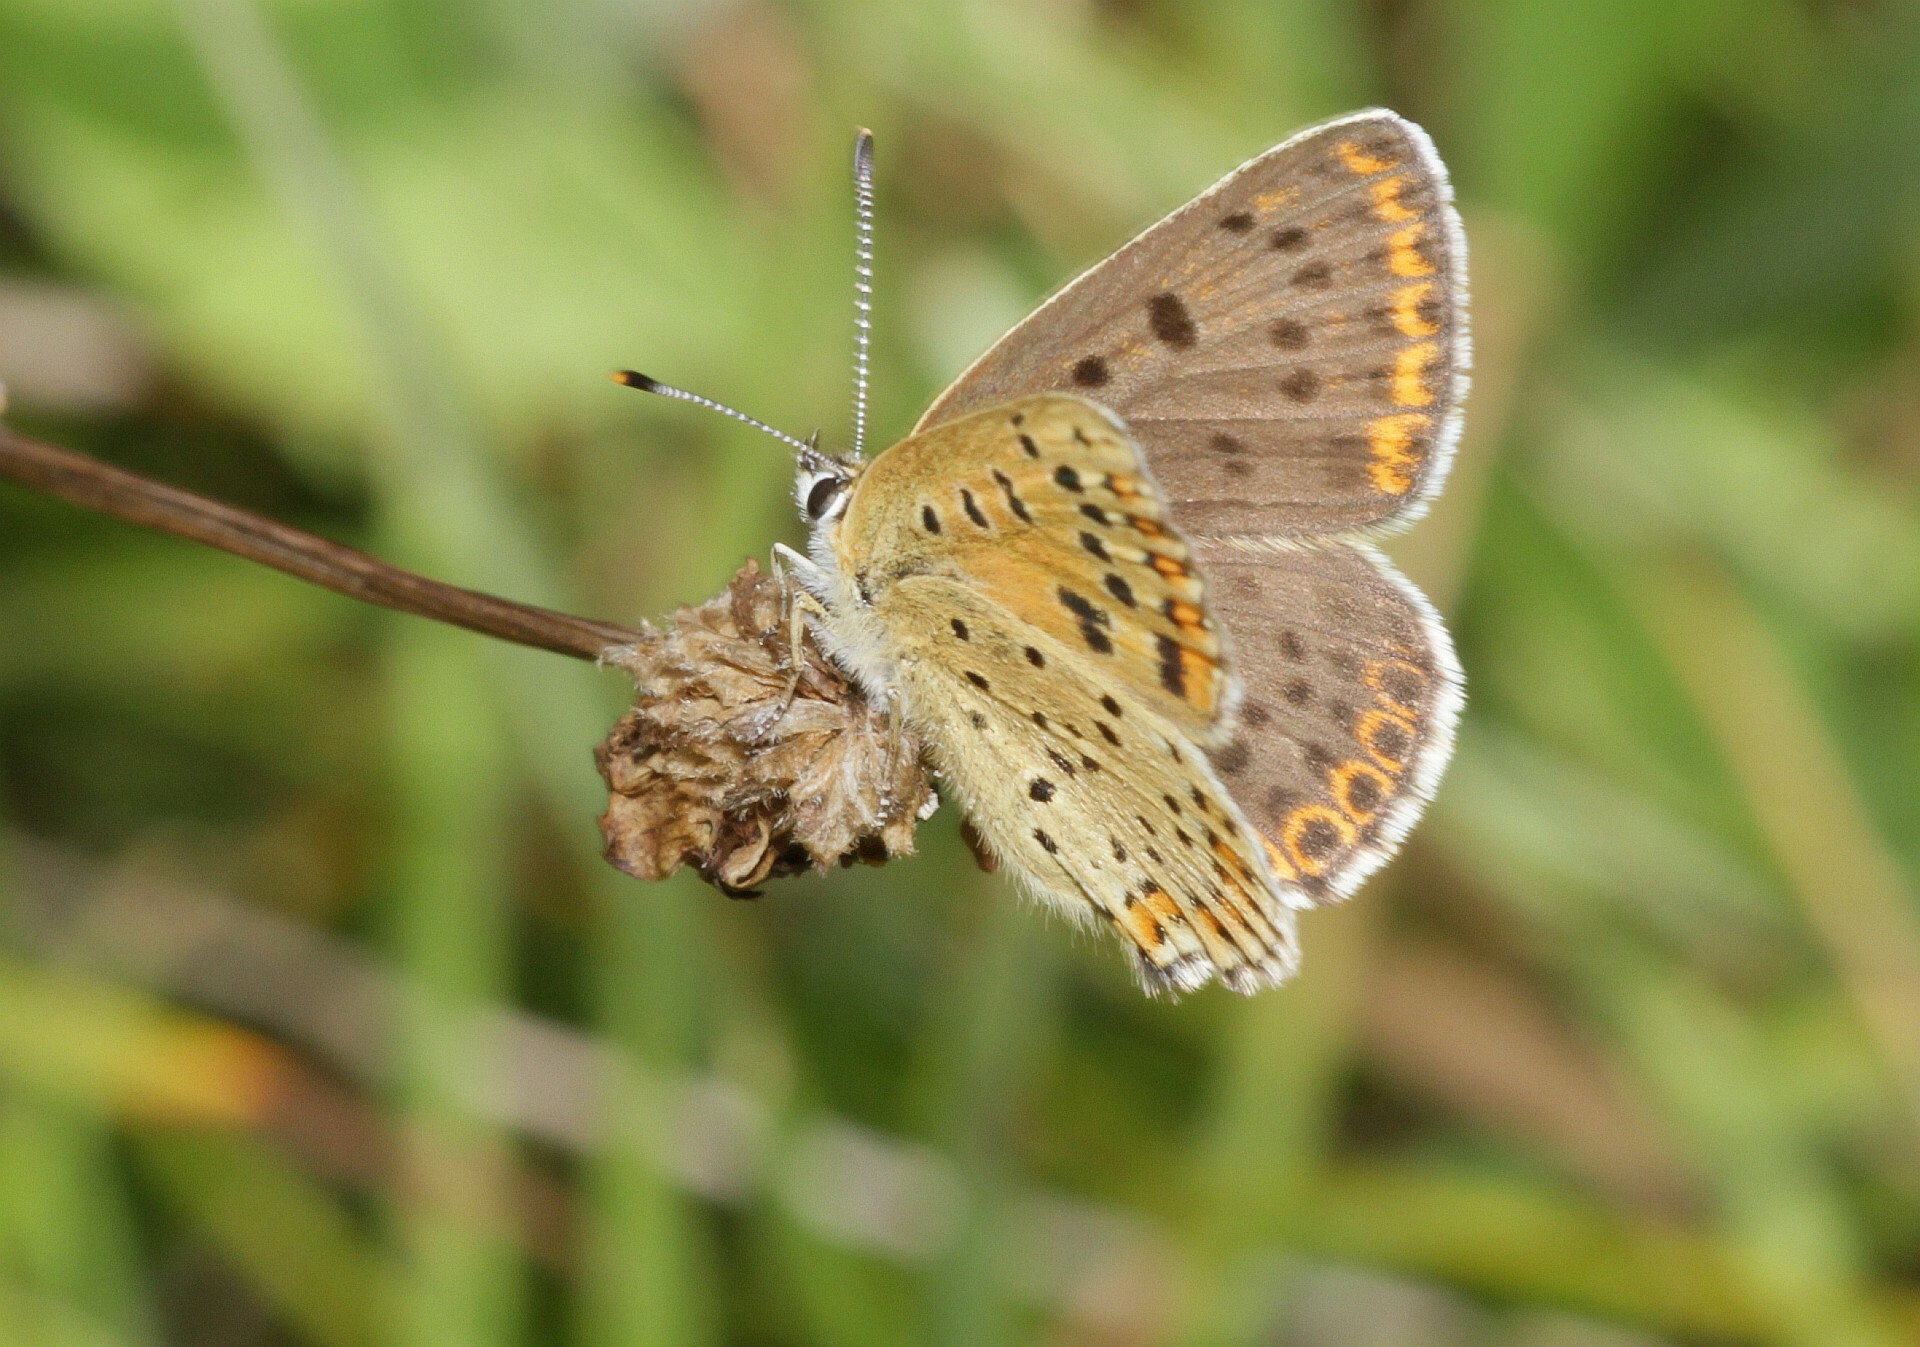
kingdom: Animalia
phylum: Arthropoda
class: Insecta
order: Lepidoptera
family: Lycaenidae
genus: Loweia
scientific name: Loweia tityrus
